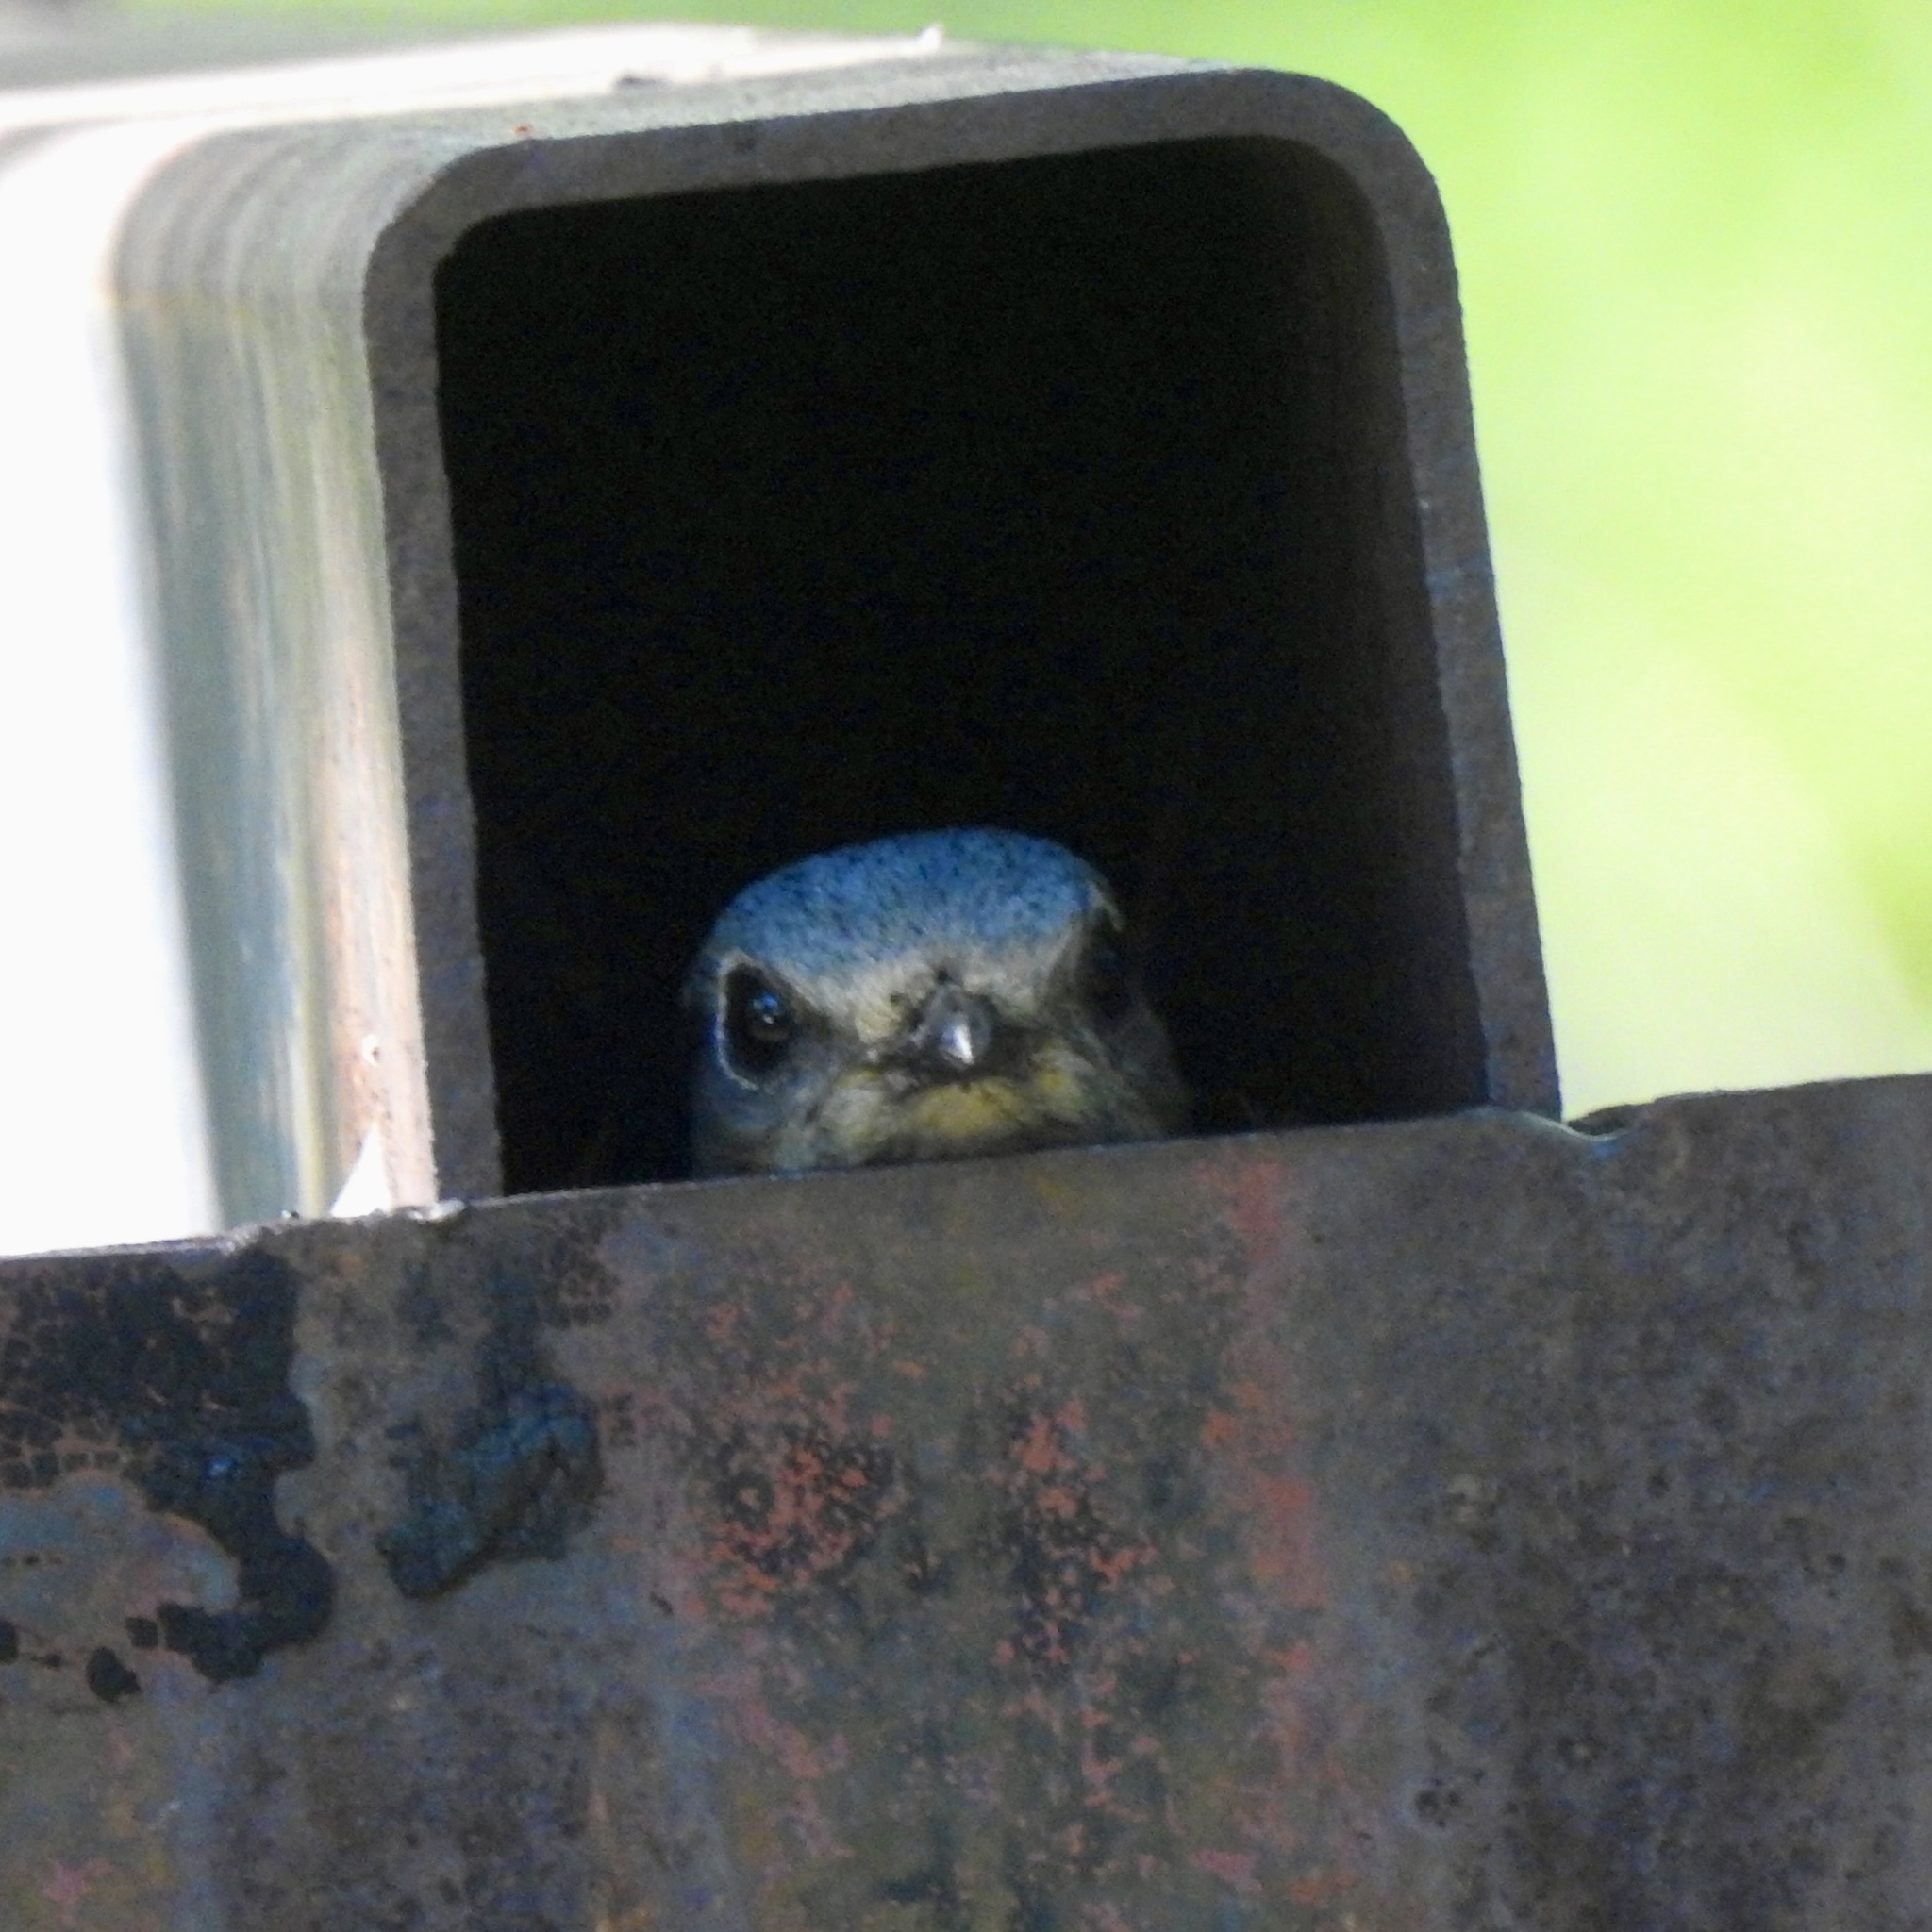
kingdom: Animalia
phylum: Chordata
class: Aves
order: Passeriformes
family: Turdidae
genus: Sialia
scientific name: Sialia sialis
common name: Eastern bluebird
